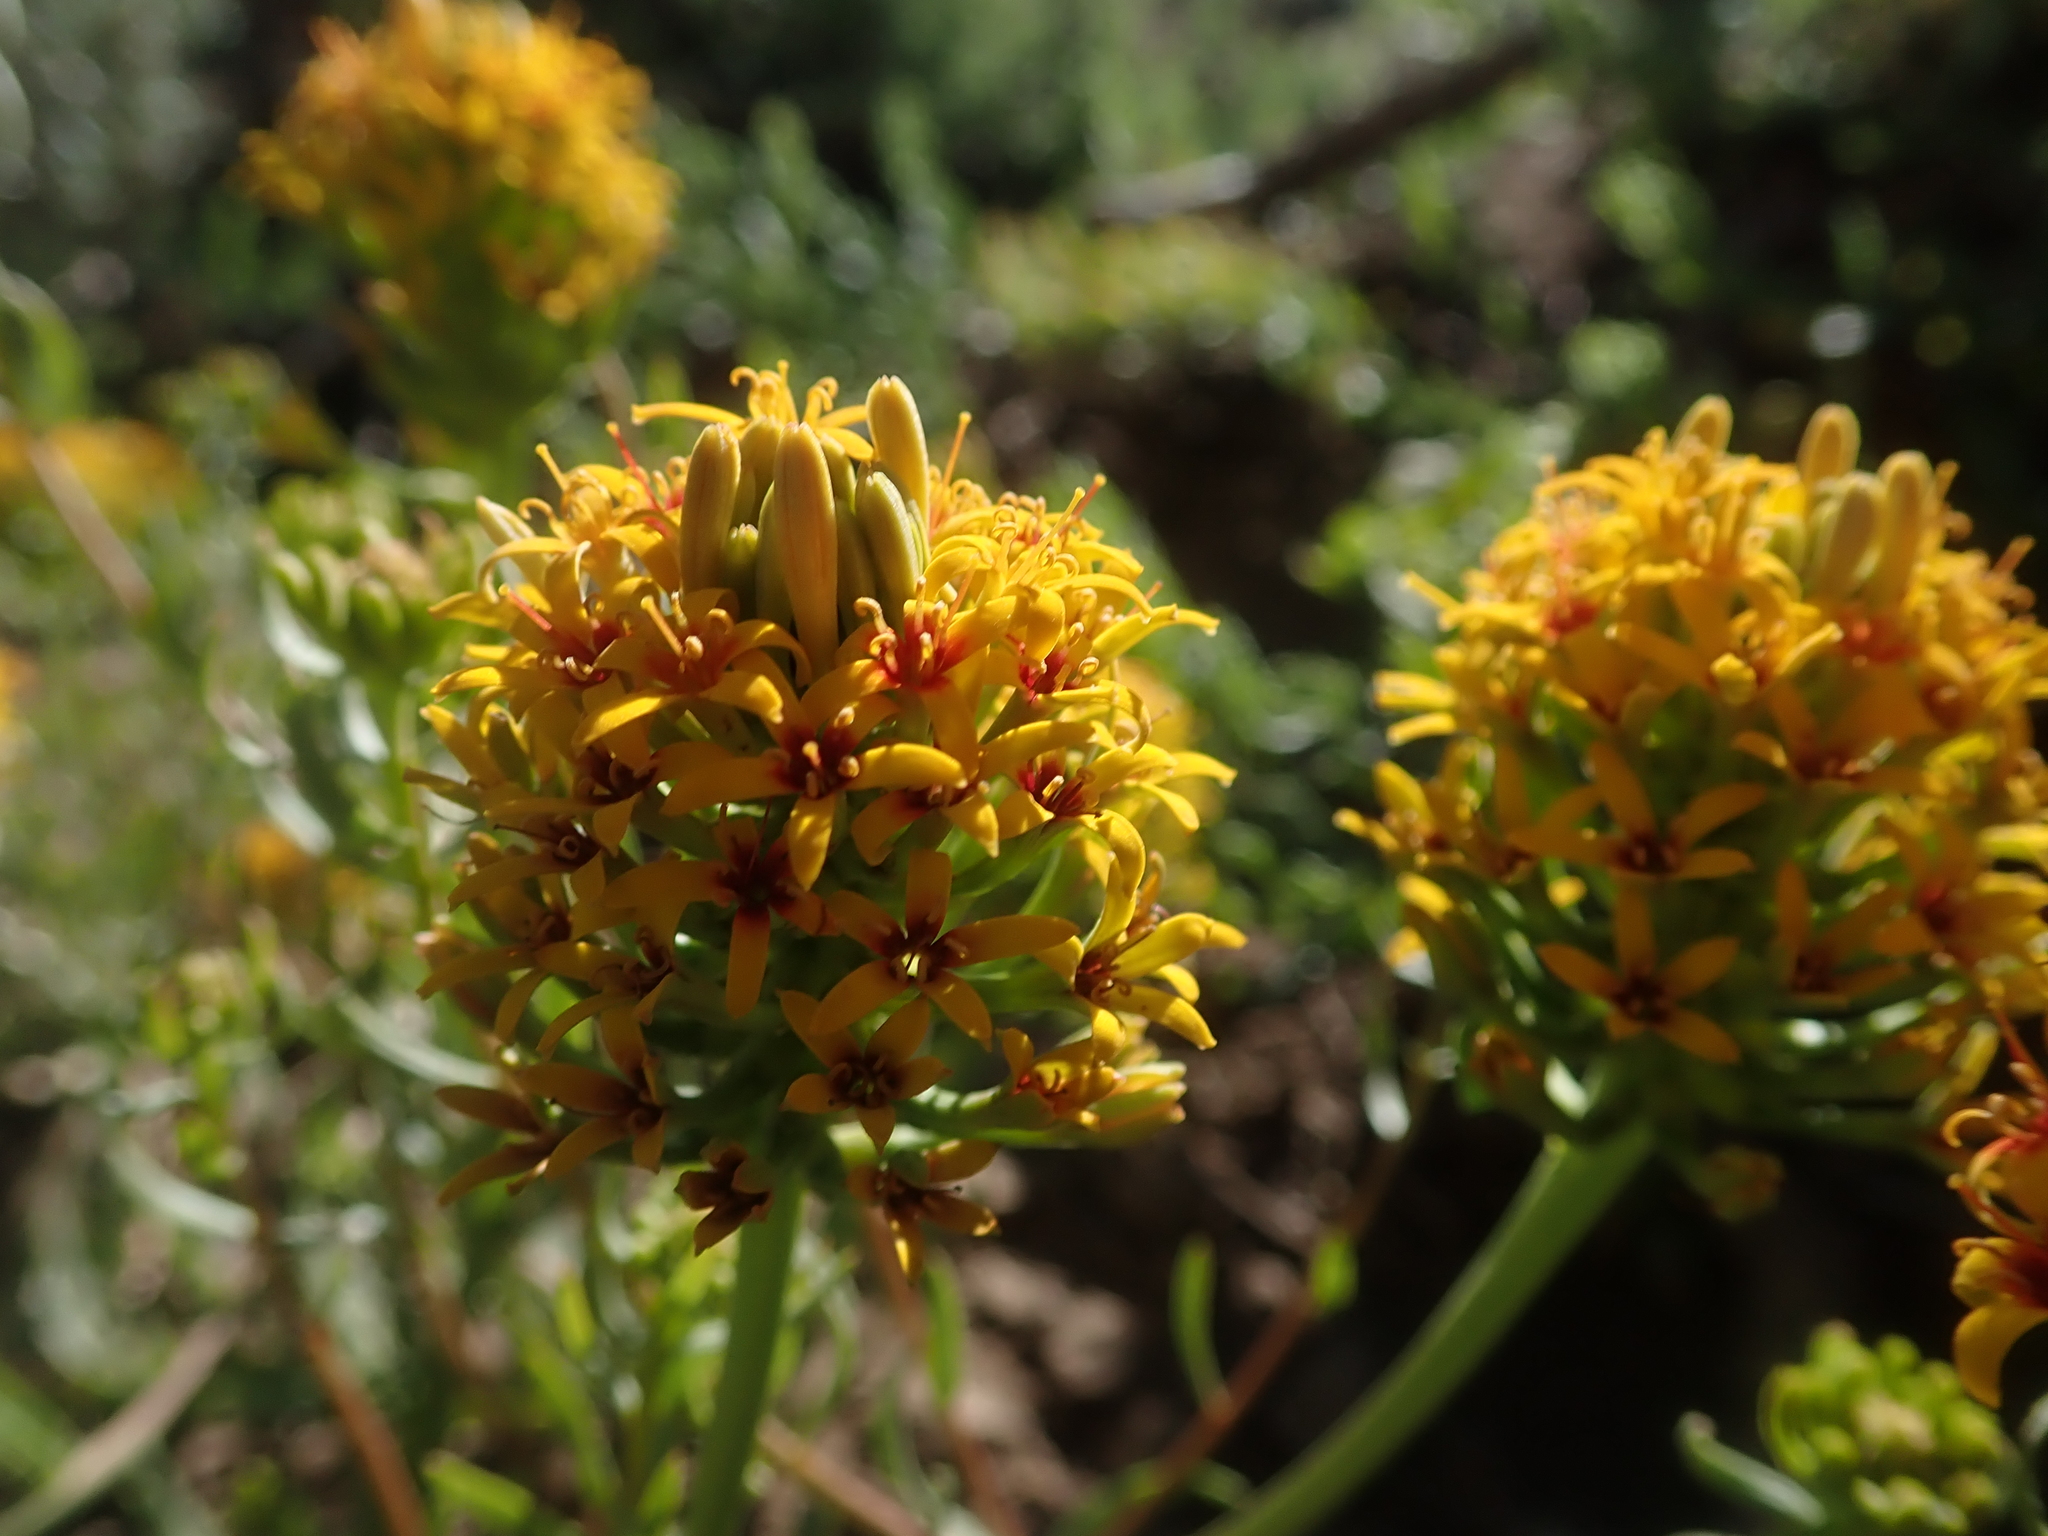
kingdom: Plantae
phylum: Tracheophyta
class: Magnoliopsida
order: Santalales
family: Schoepfiaceae
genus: Quinchamalium
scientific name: Quinchamalium chilense
